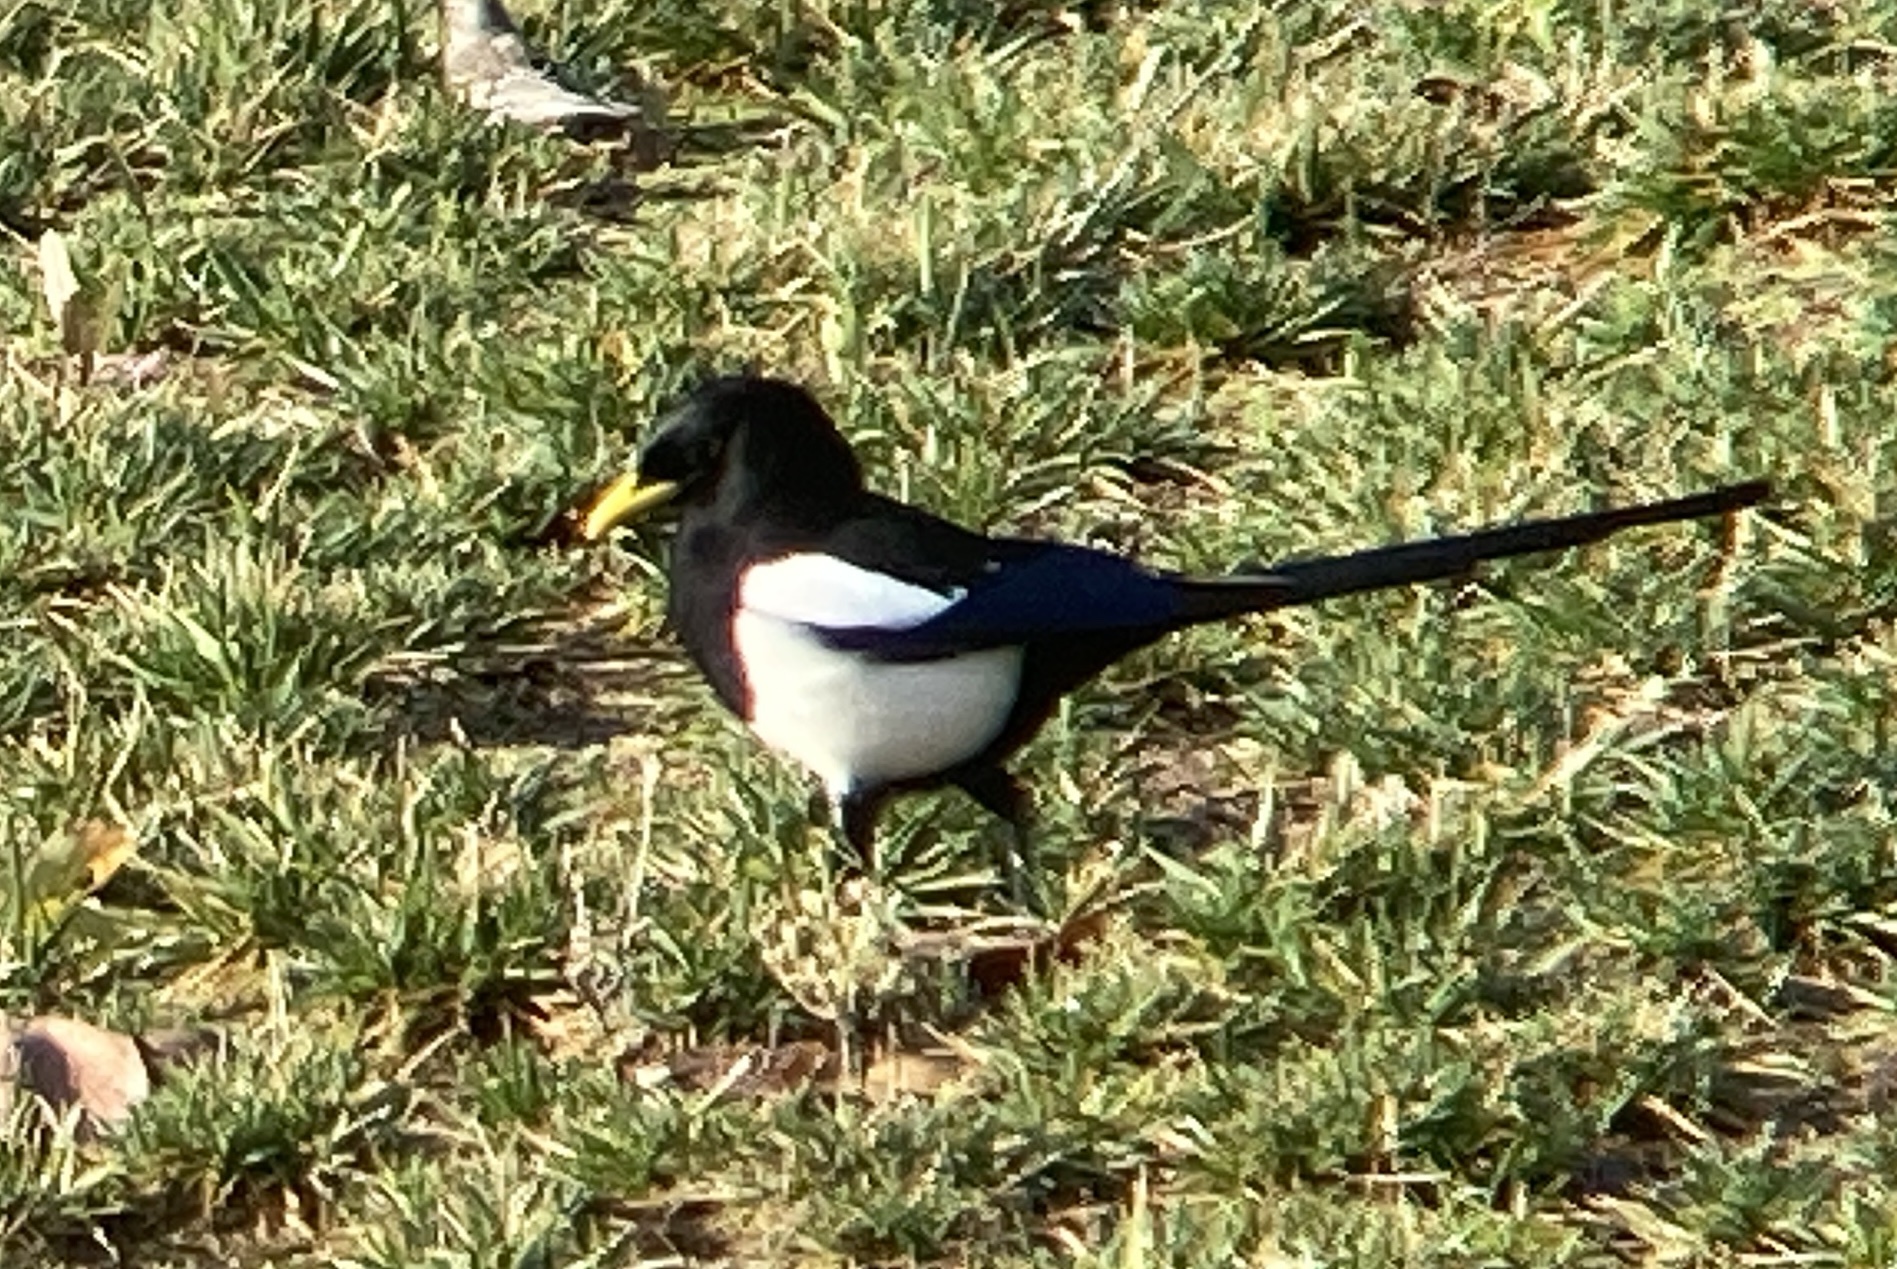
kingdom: Animalia
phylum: Chordata
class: Aves
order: Passeriformes
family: Corvidae
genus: Pica
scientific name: Pica nuttalli
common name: Yellow-billed magpie
